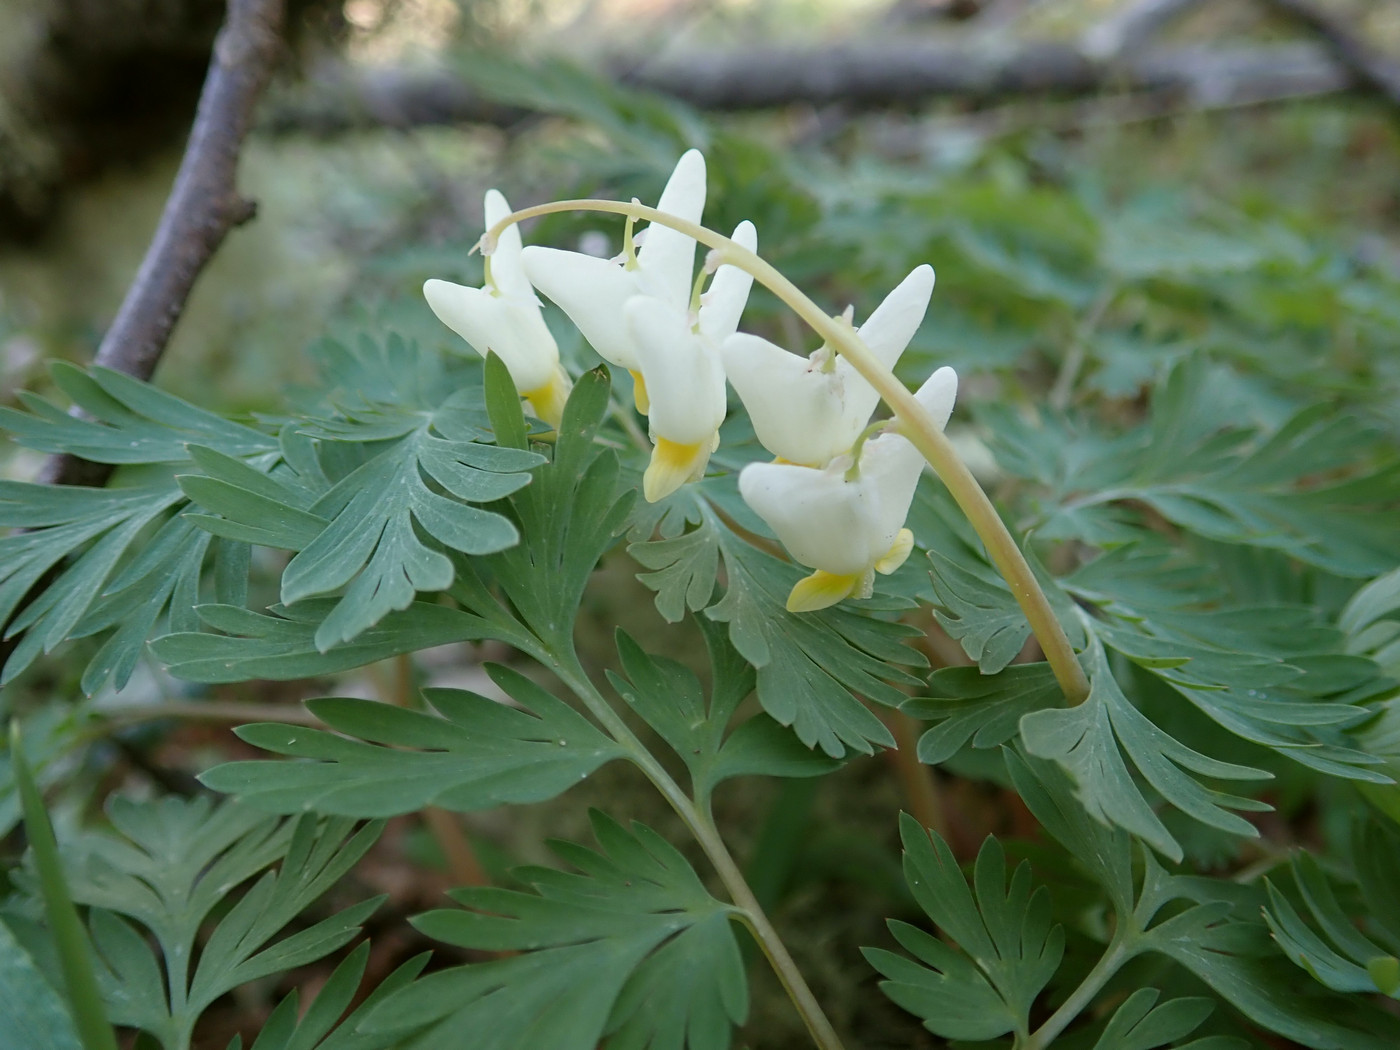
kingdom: Plantae
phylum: Tracheophyta
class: Magnoliopsida
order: Ranunculales
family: Papaveraceae
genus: Dicentra
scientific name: Dicentra cucullaria
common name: Dutchman's breeches
